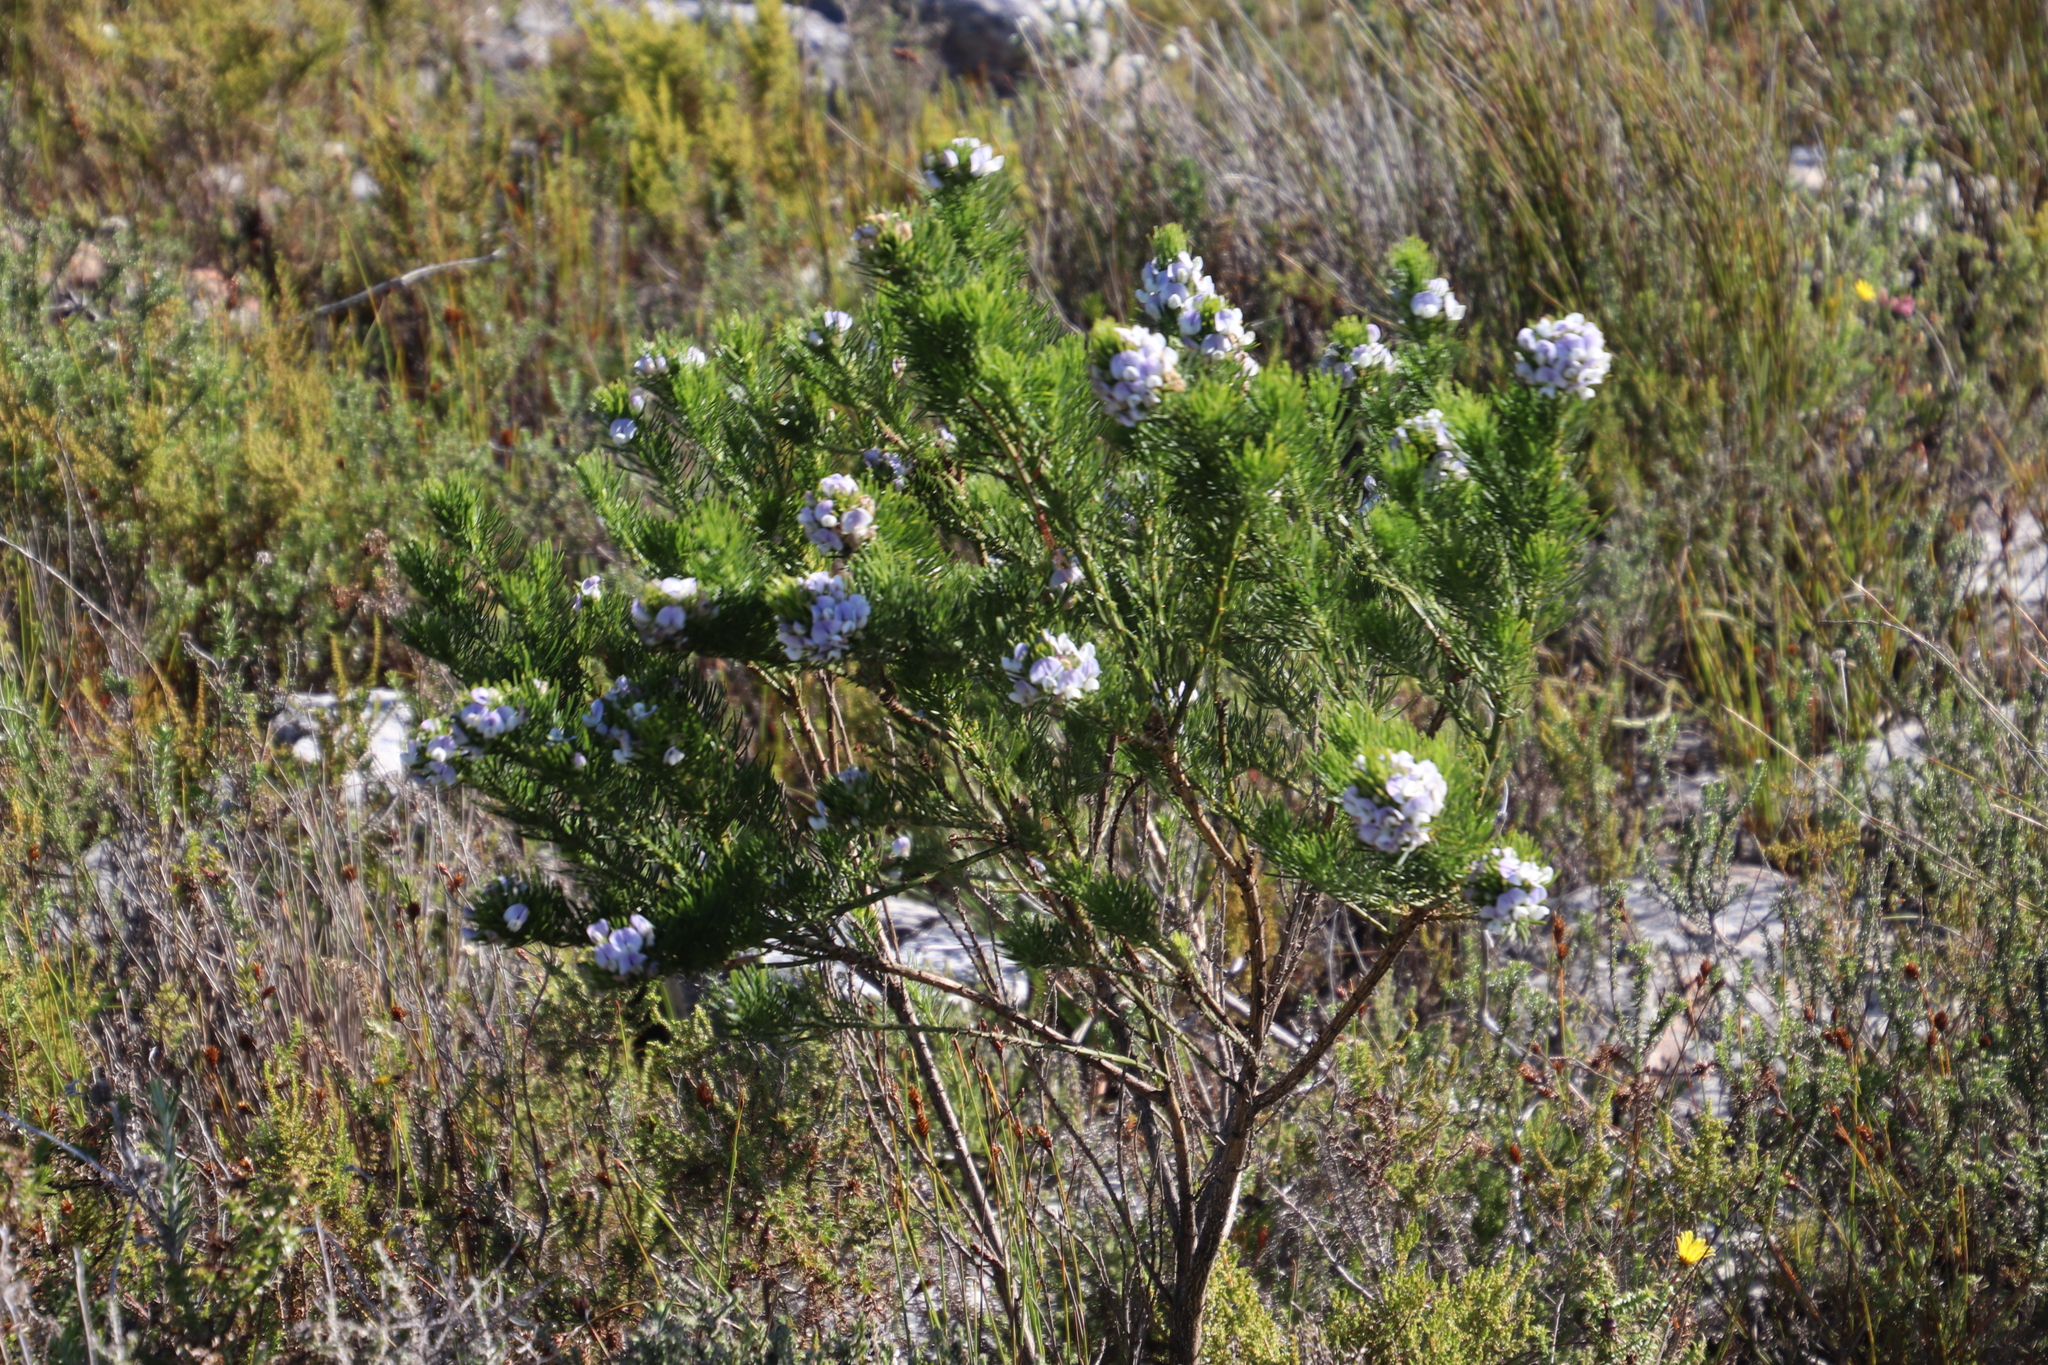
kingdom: Plantae
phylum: Tracheophyta
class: Magnoliopsida
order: Fabales
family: Fabaceae
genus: Psoralea
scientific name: Psoralea pinnata
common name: African scurfpea
